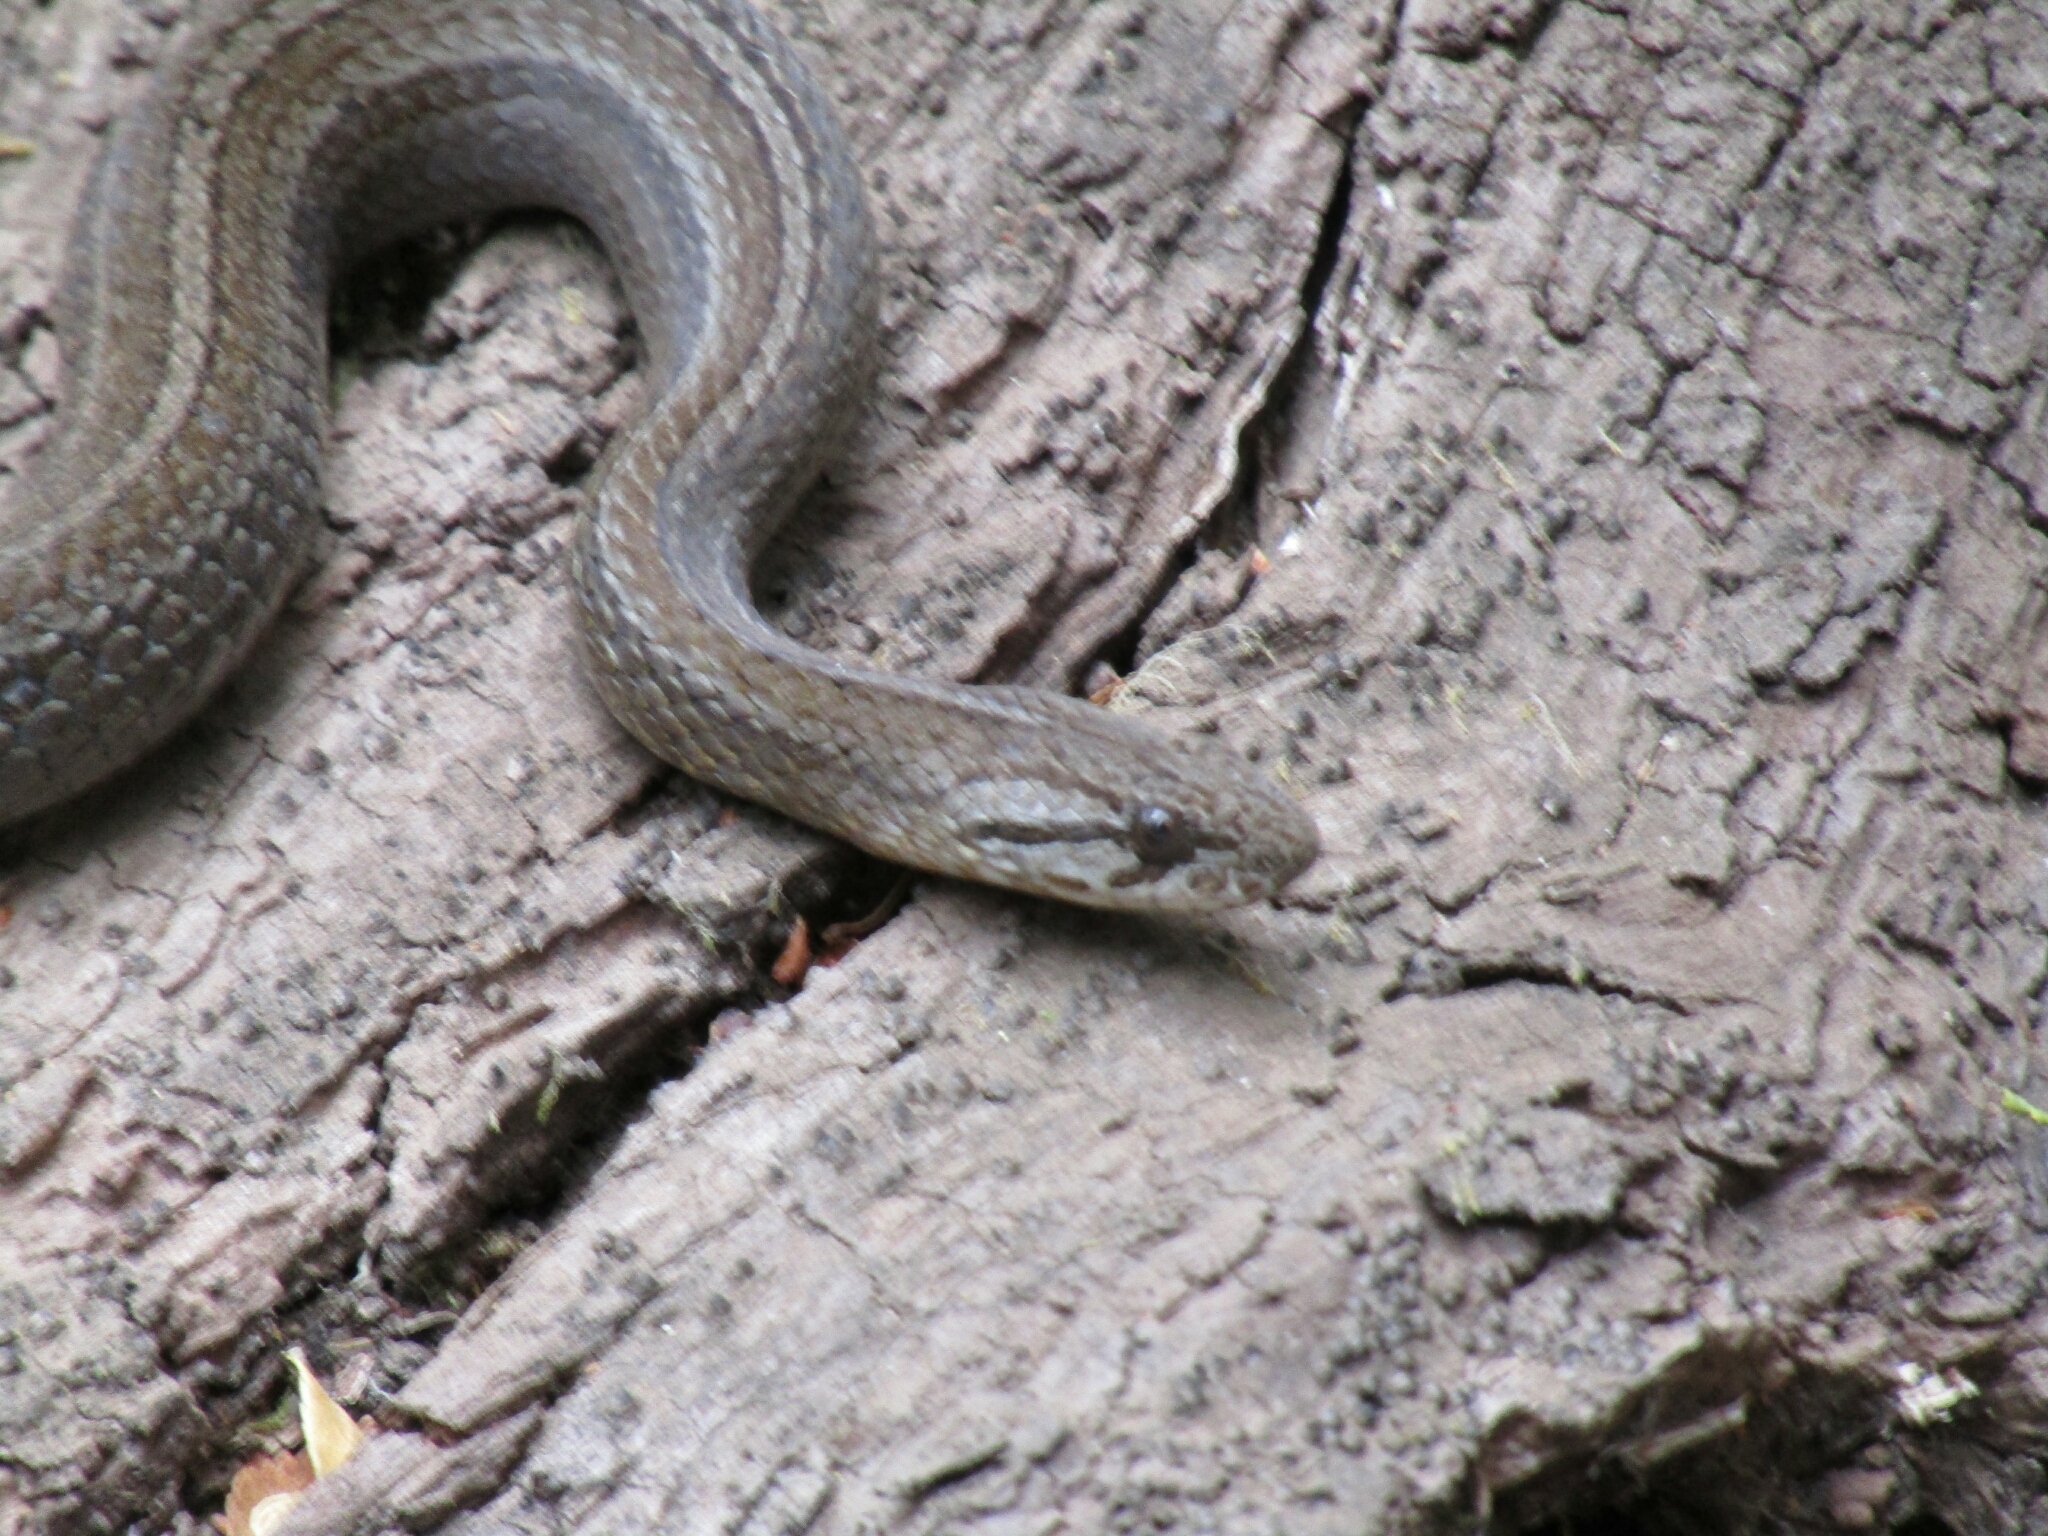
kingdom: Animalia
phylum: Chordata
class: Squamata
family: Colubridae
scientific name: Colubridae
